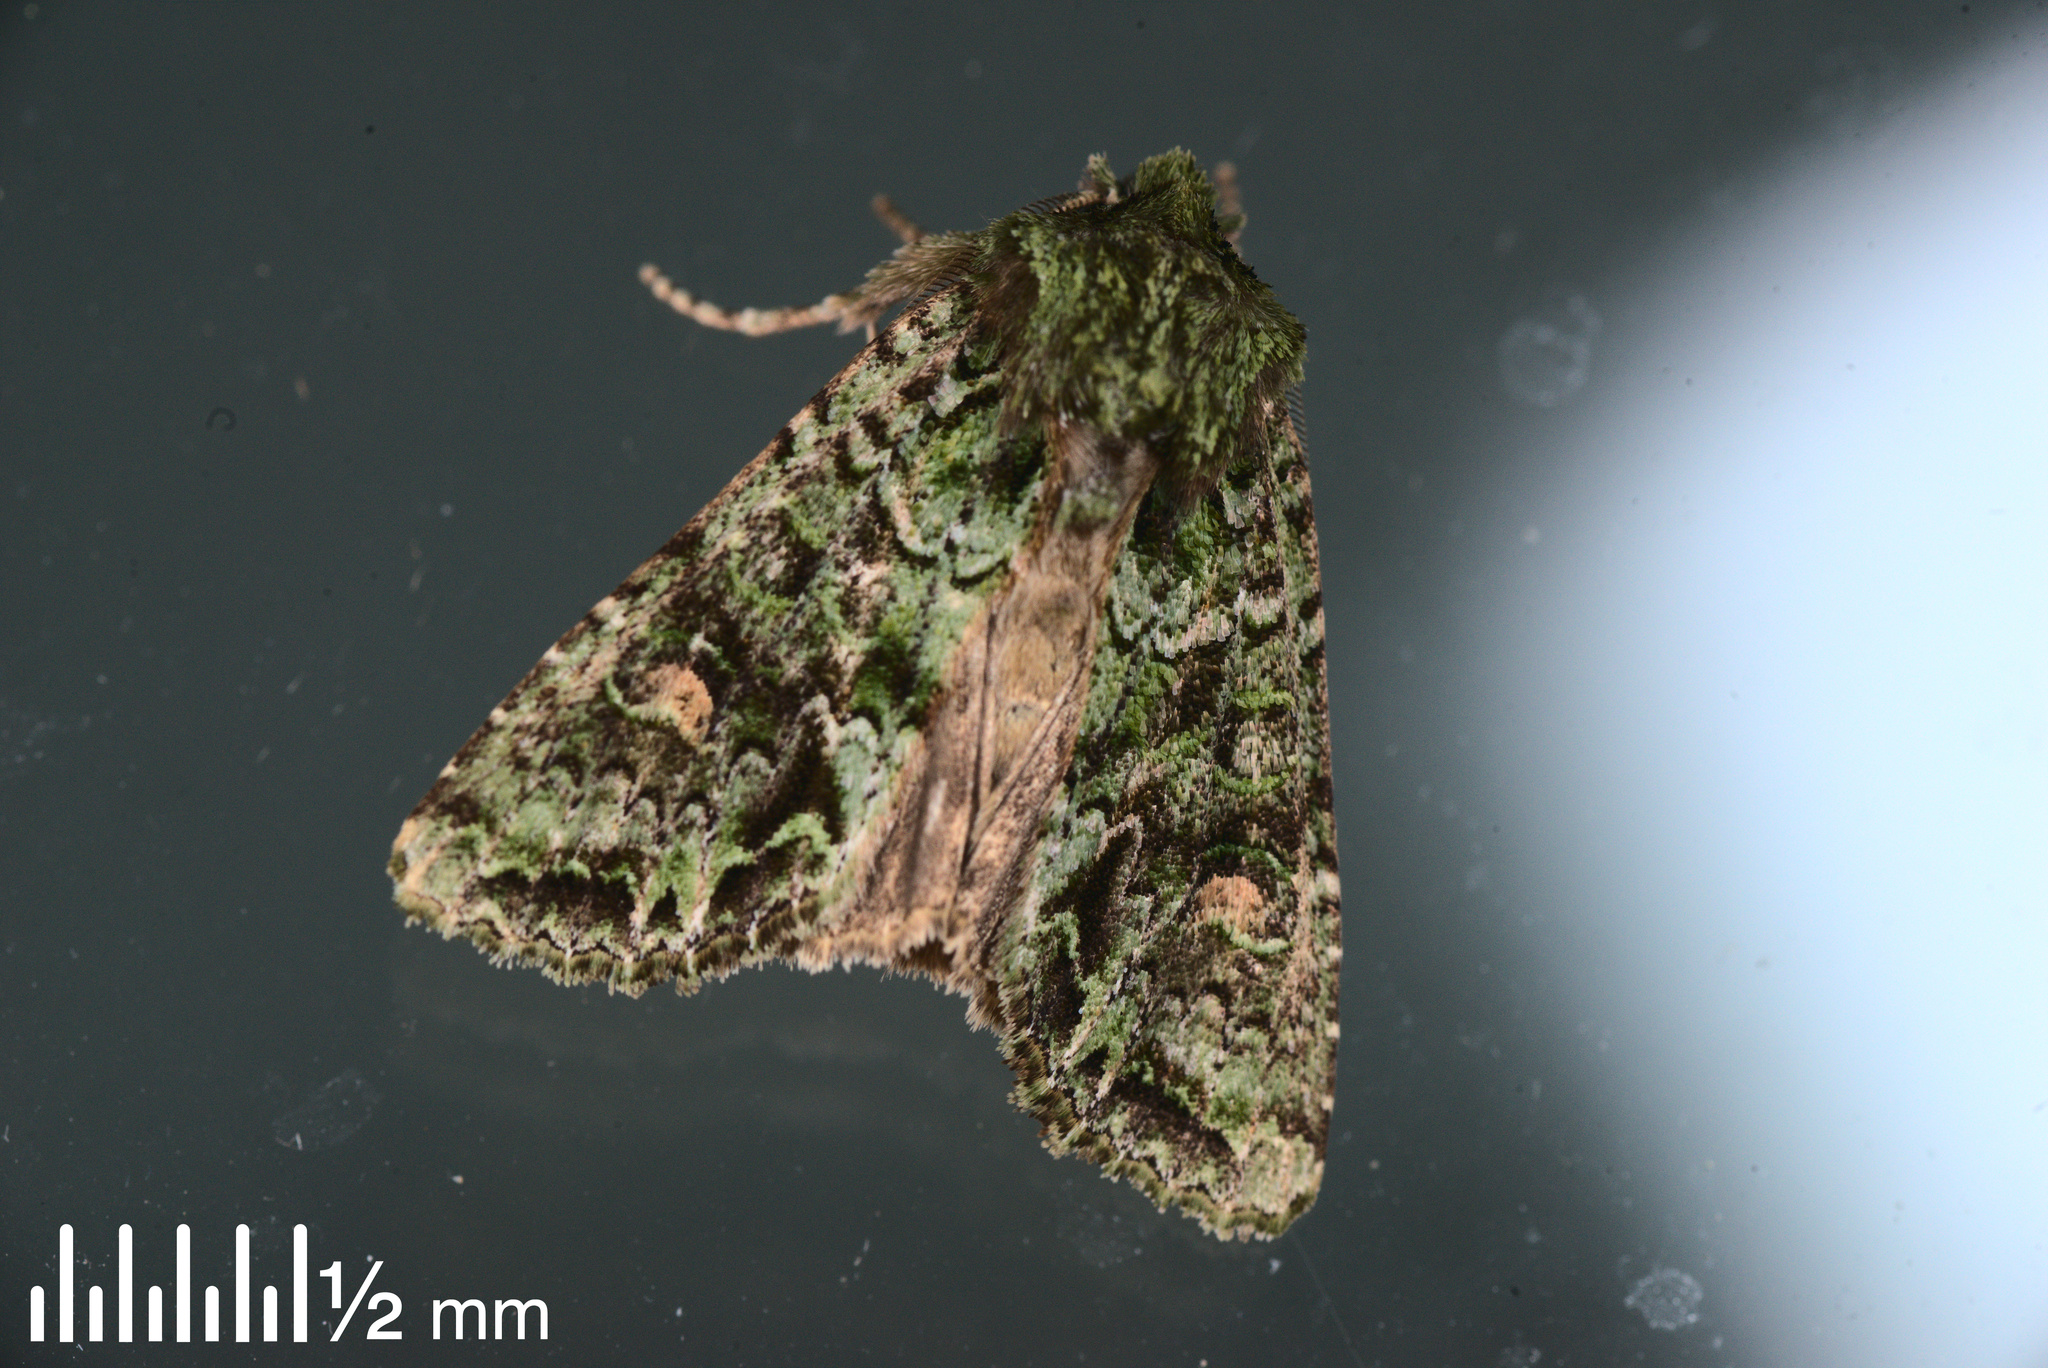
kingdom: Animalia
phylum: Arthropoda
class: Insecta
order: Lepidoptera
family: Noctuidae
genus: Ichneutica
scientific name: Ichneutica
